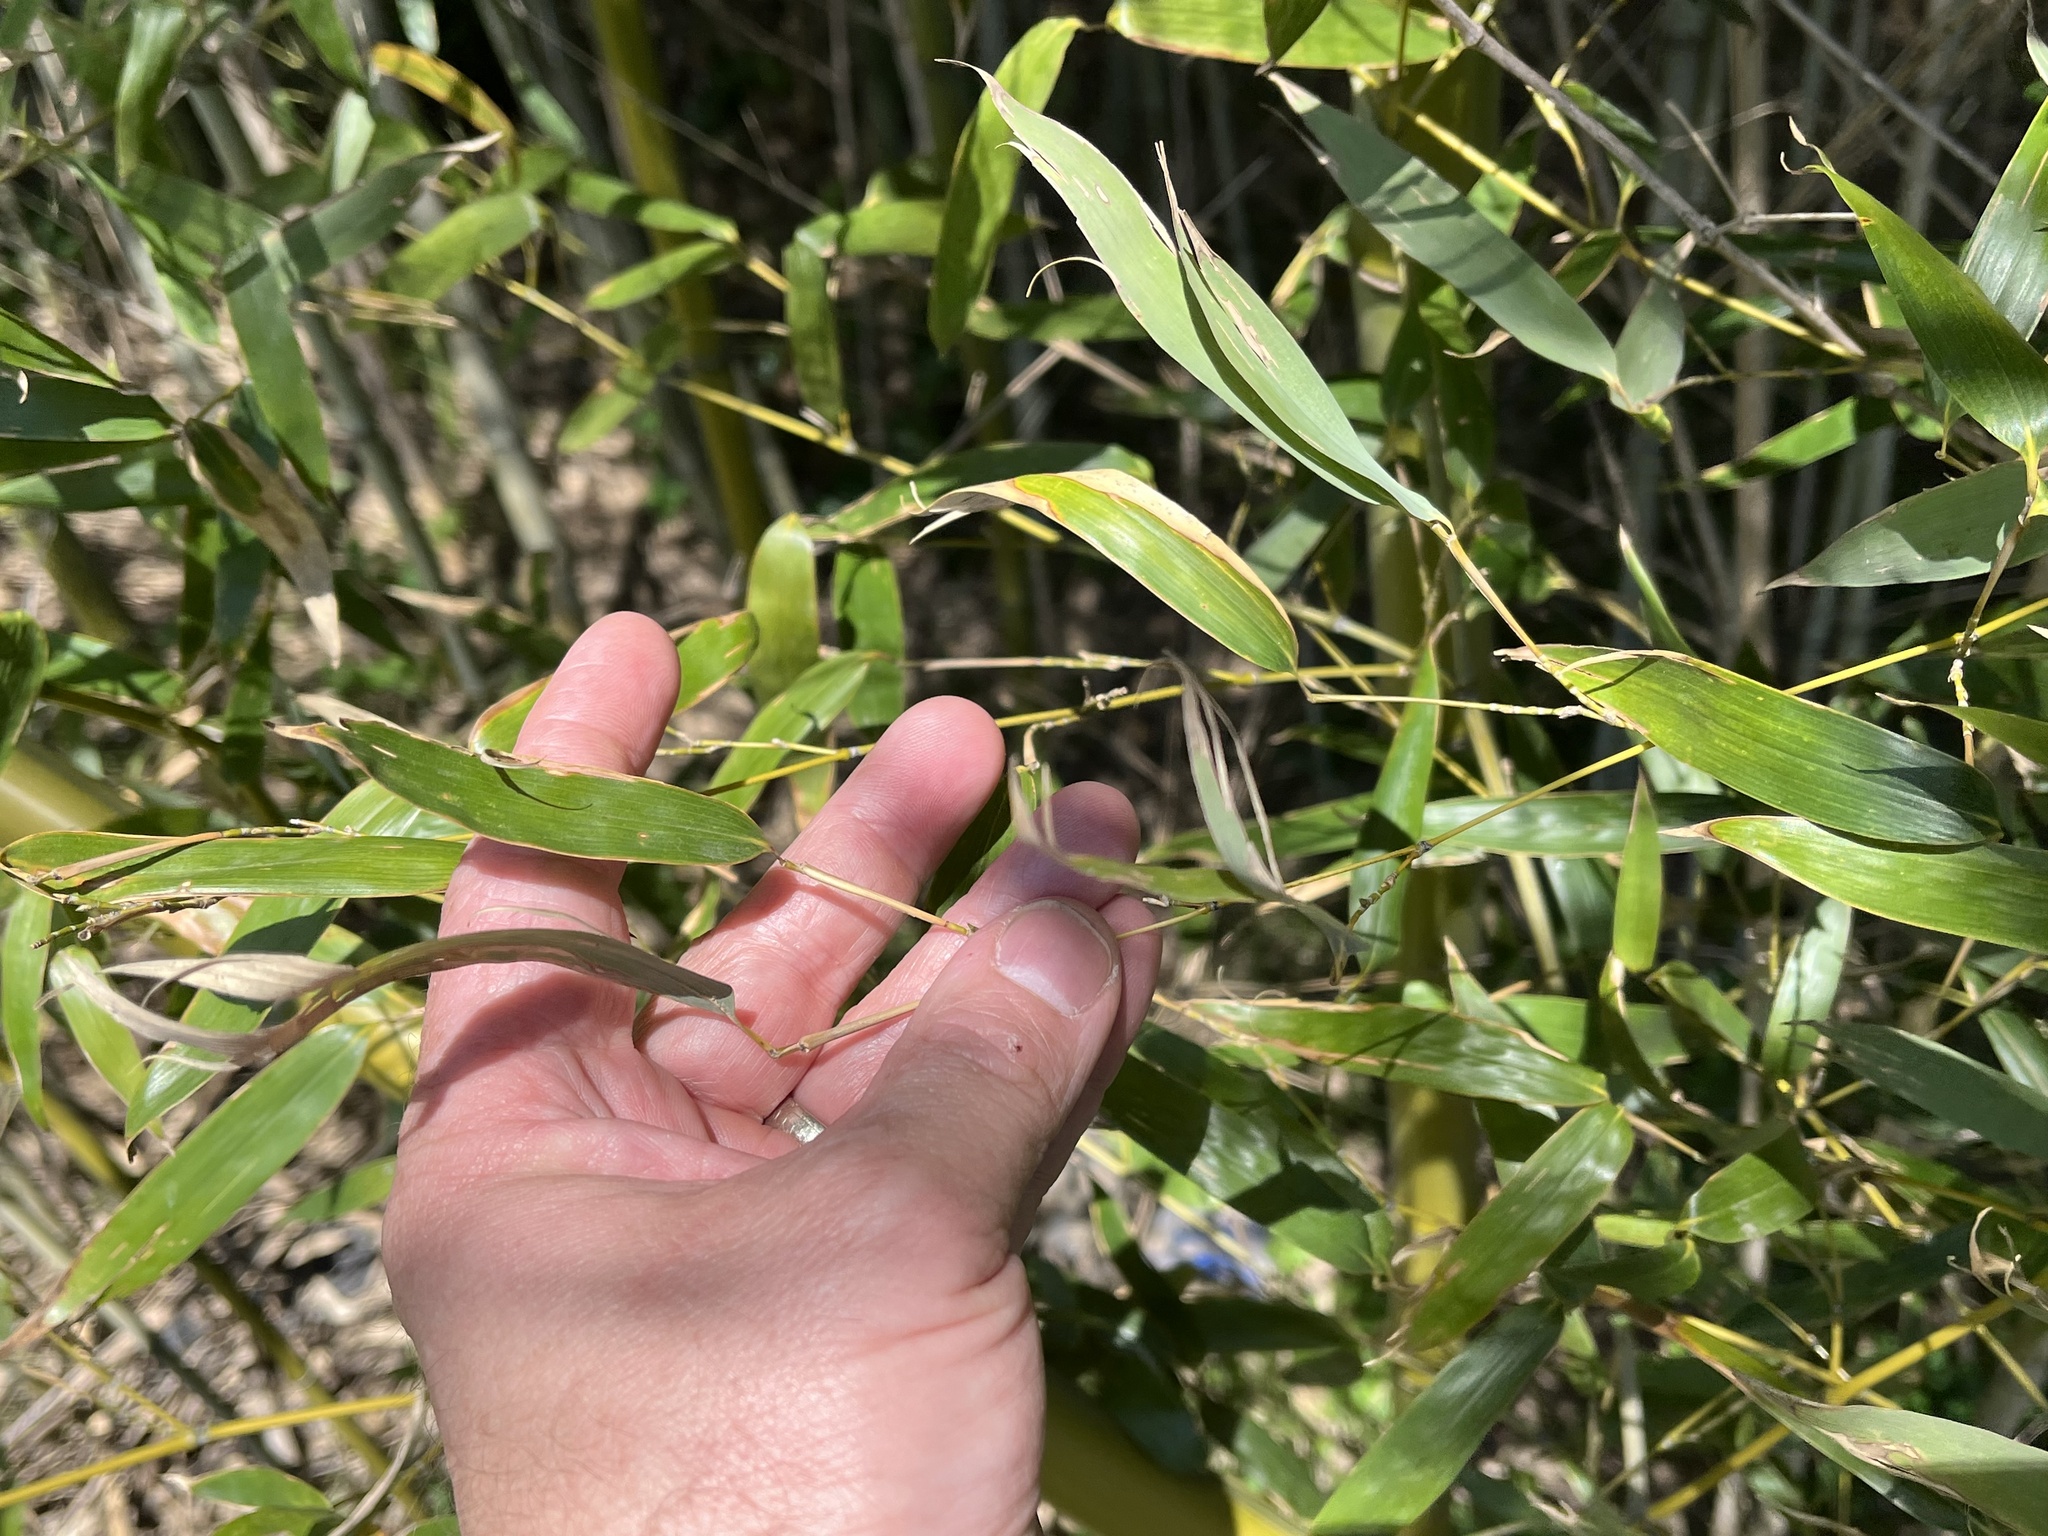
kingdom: Plantae
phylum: Tracheophyta
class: Liliopsida
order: Poales
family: Poaceae
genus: Phyllostachys
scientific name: Phyllostachys aurea
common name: Golden bamboo
